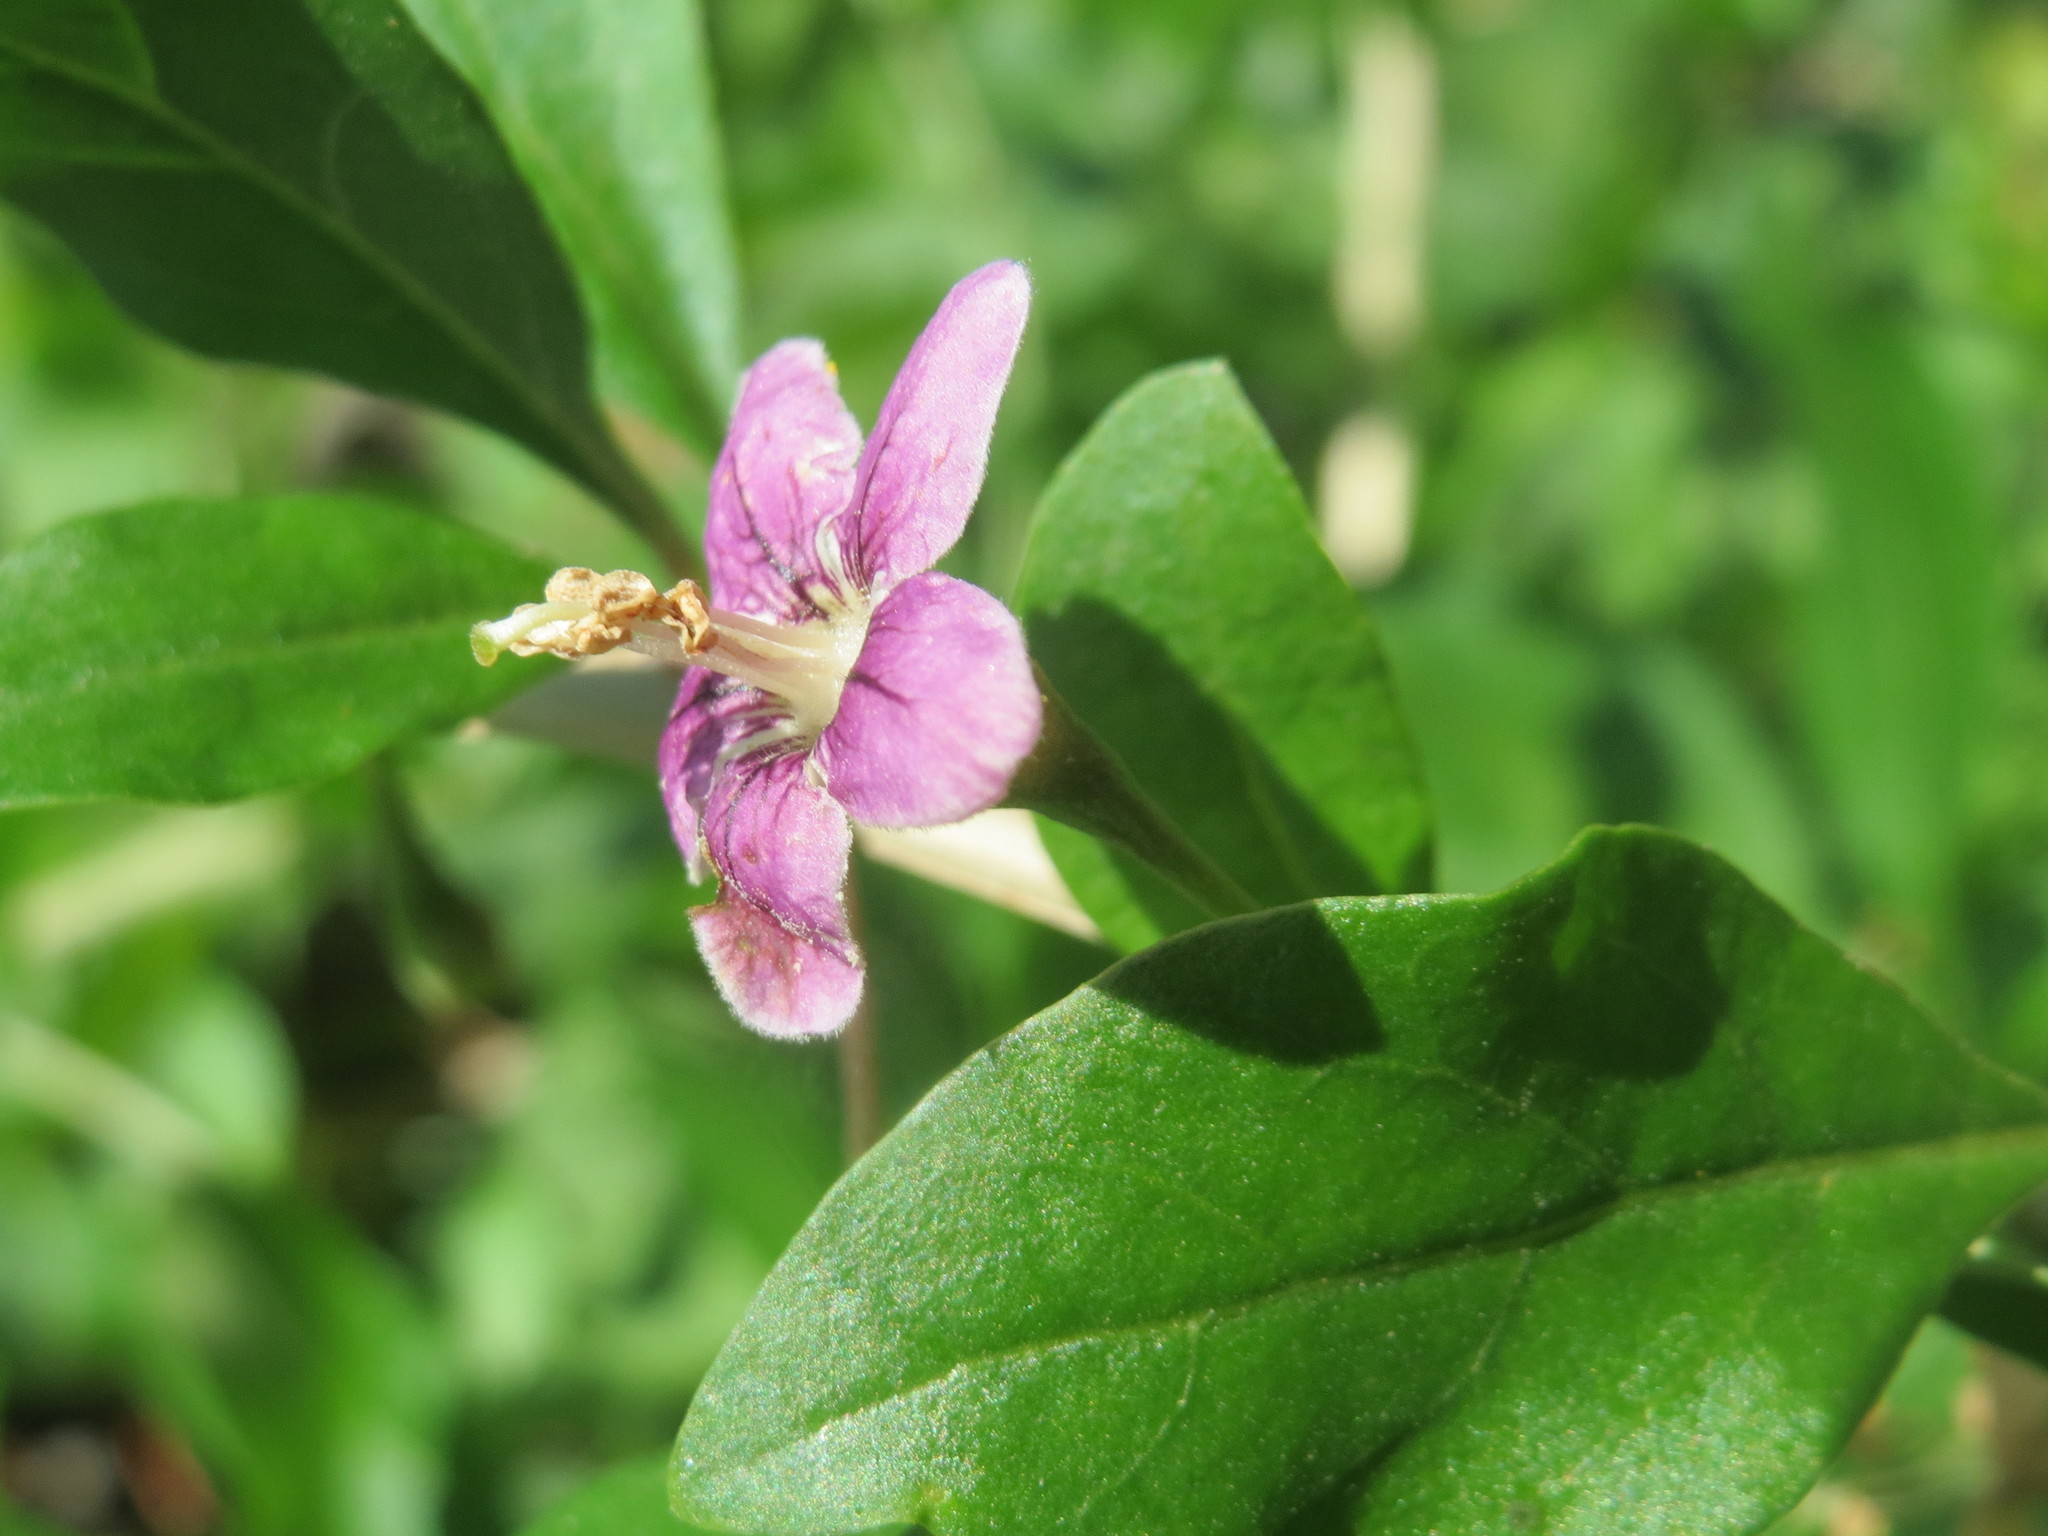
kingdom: Plantae
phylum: Tracheophyta
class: Magnoliopsida
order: Solanales
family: Solanaceae
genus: Lycium
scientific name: Lycium barbarum
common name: Duke of argyll's teaplant
